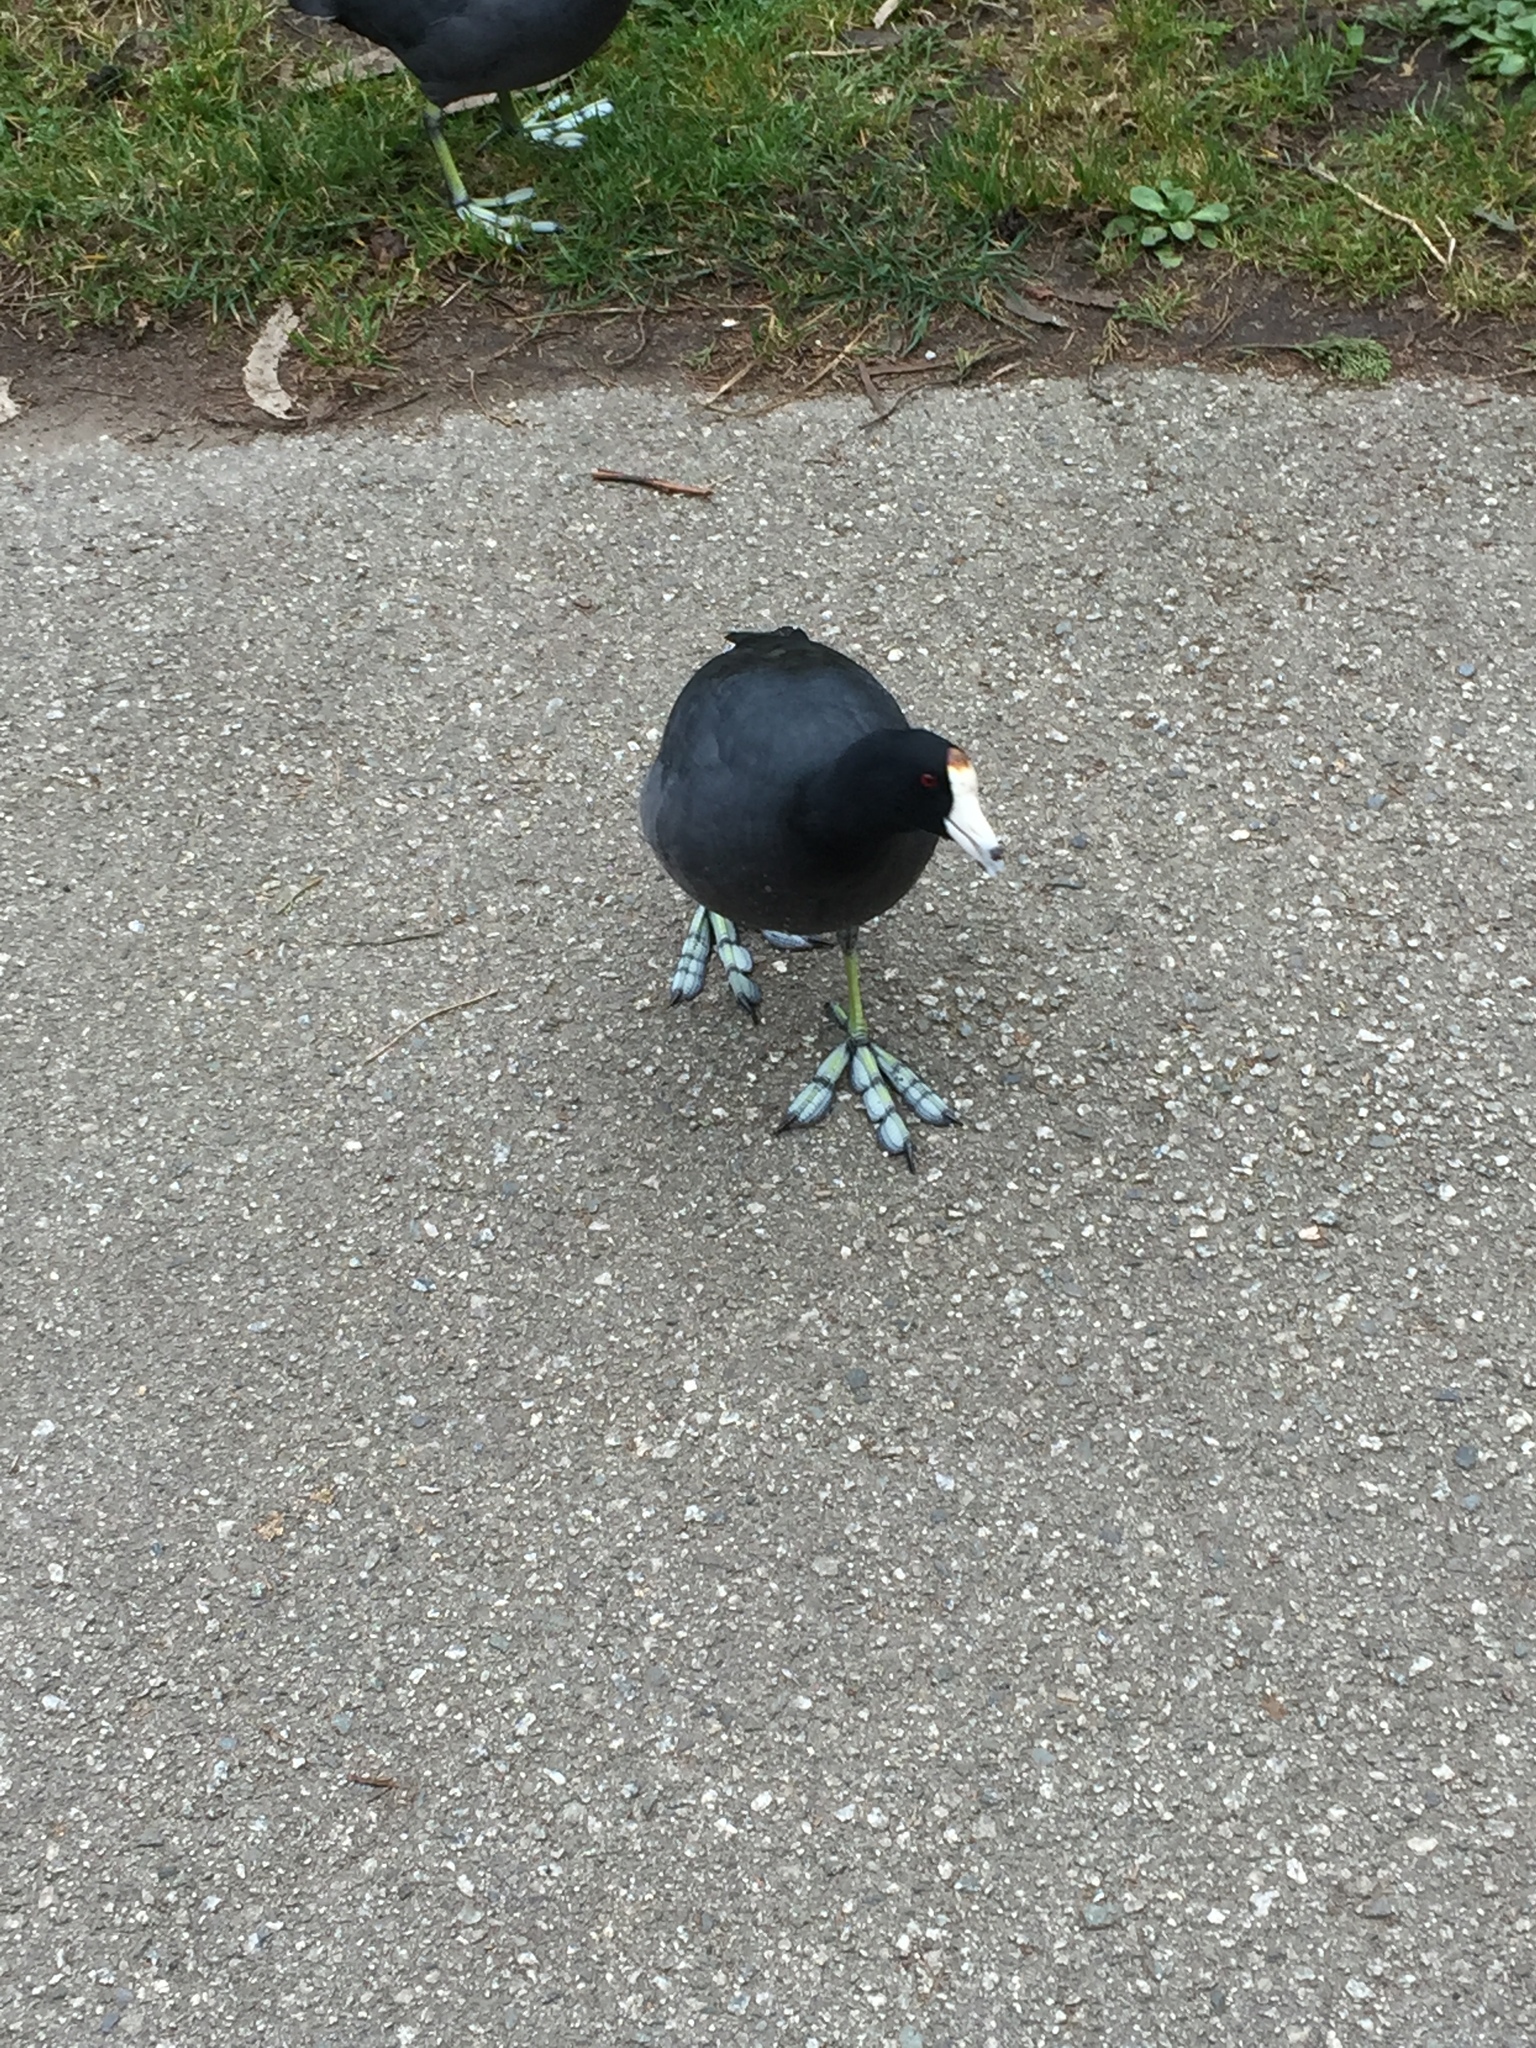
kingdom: Animalia
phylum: Chordata
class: Aves
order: Gruiformes
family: Rallidae
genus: Fulica
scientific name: Fulica americana
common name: American coot
